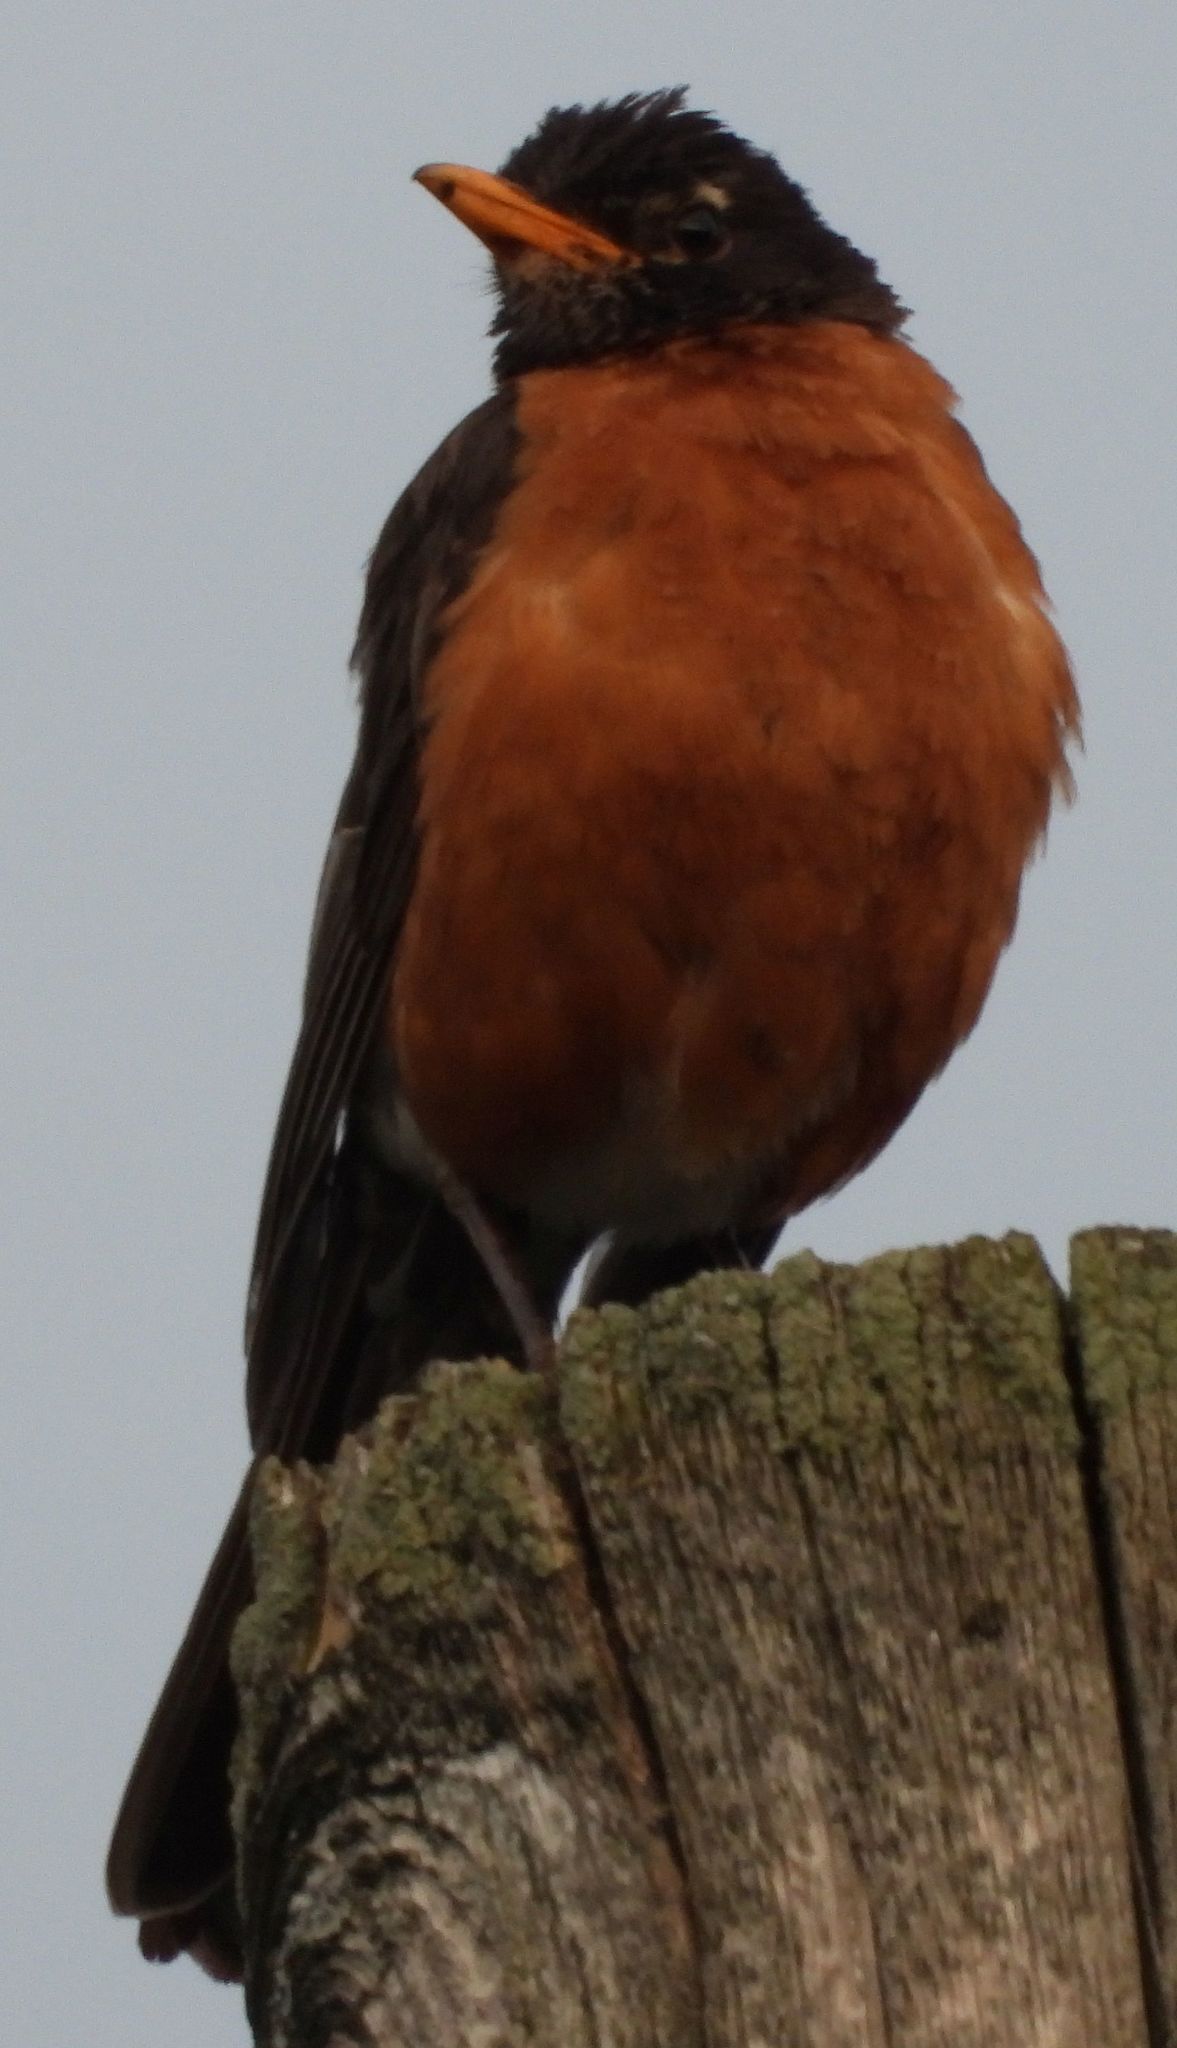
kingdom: Animalia
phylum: Chordata
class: Aves
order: Passeriformes
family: Turdidae
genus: Turdus
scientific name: Turdus migratorius
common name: American robin
